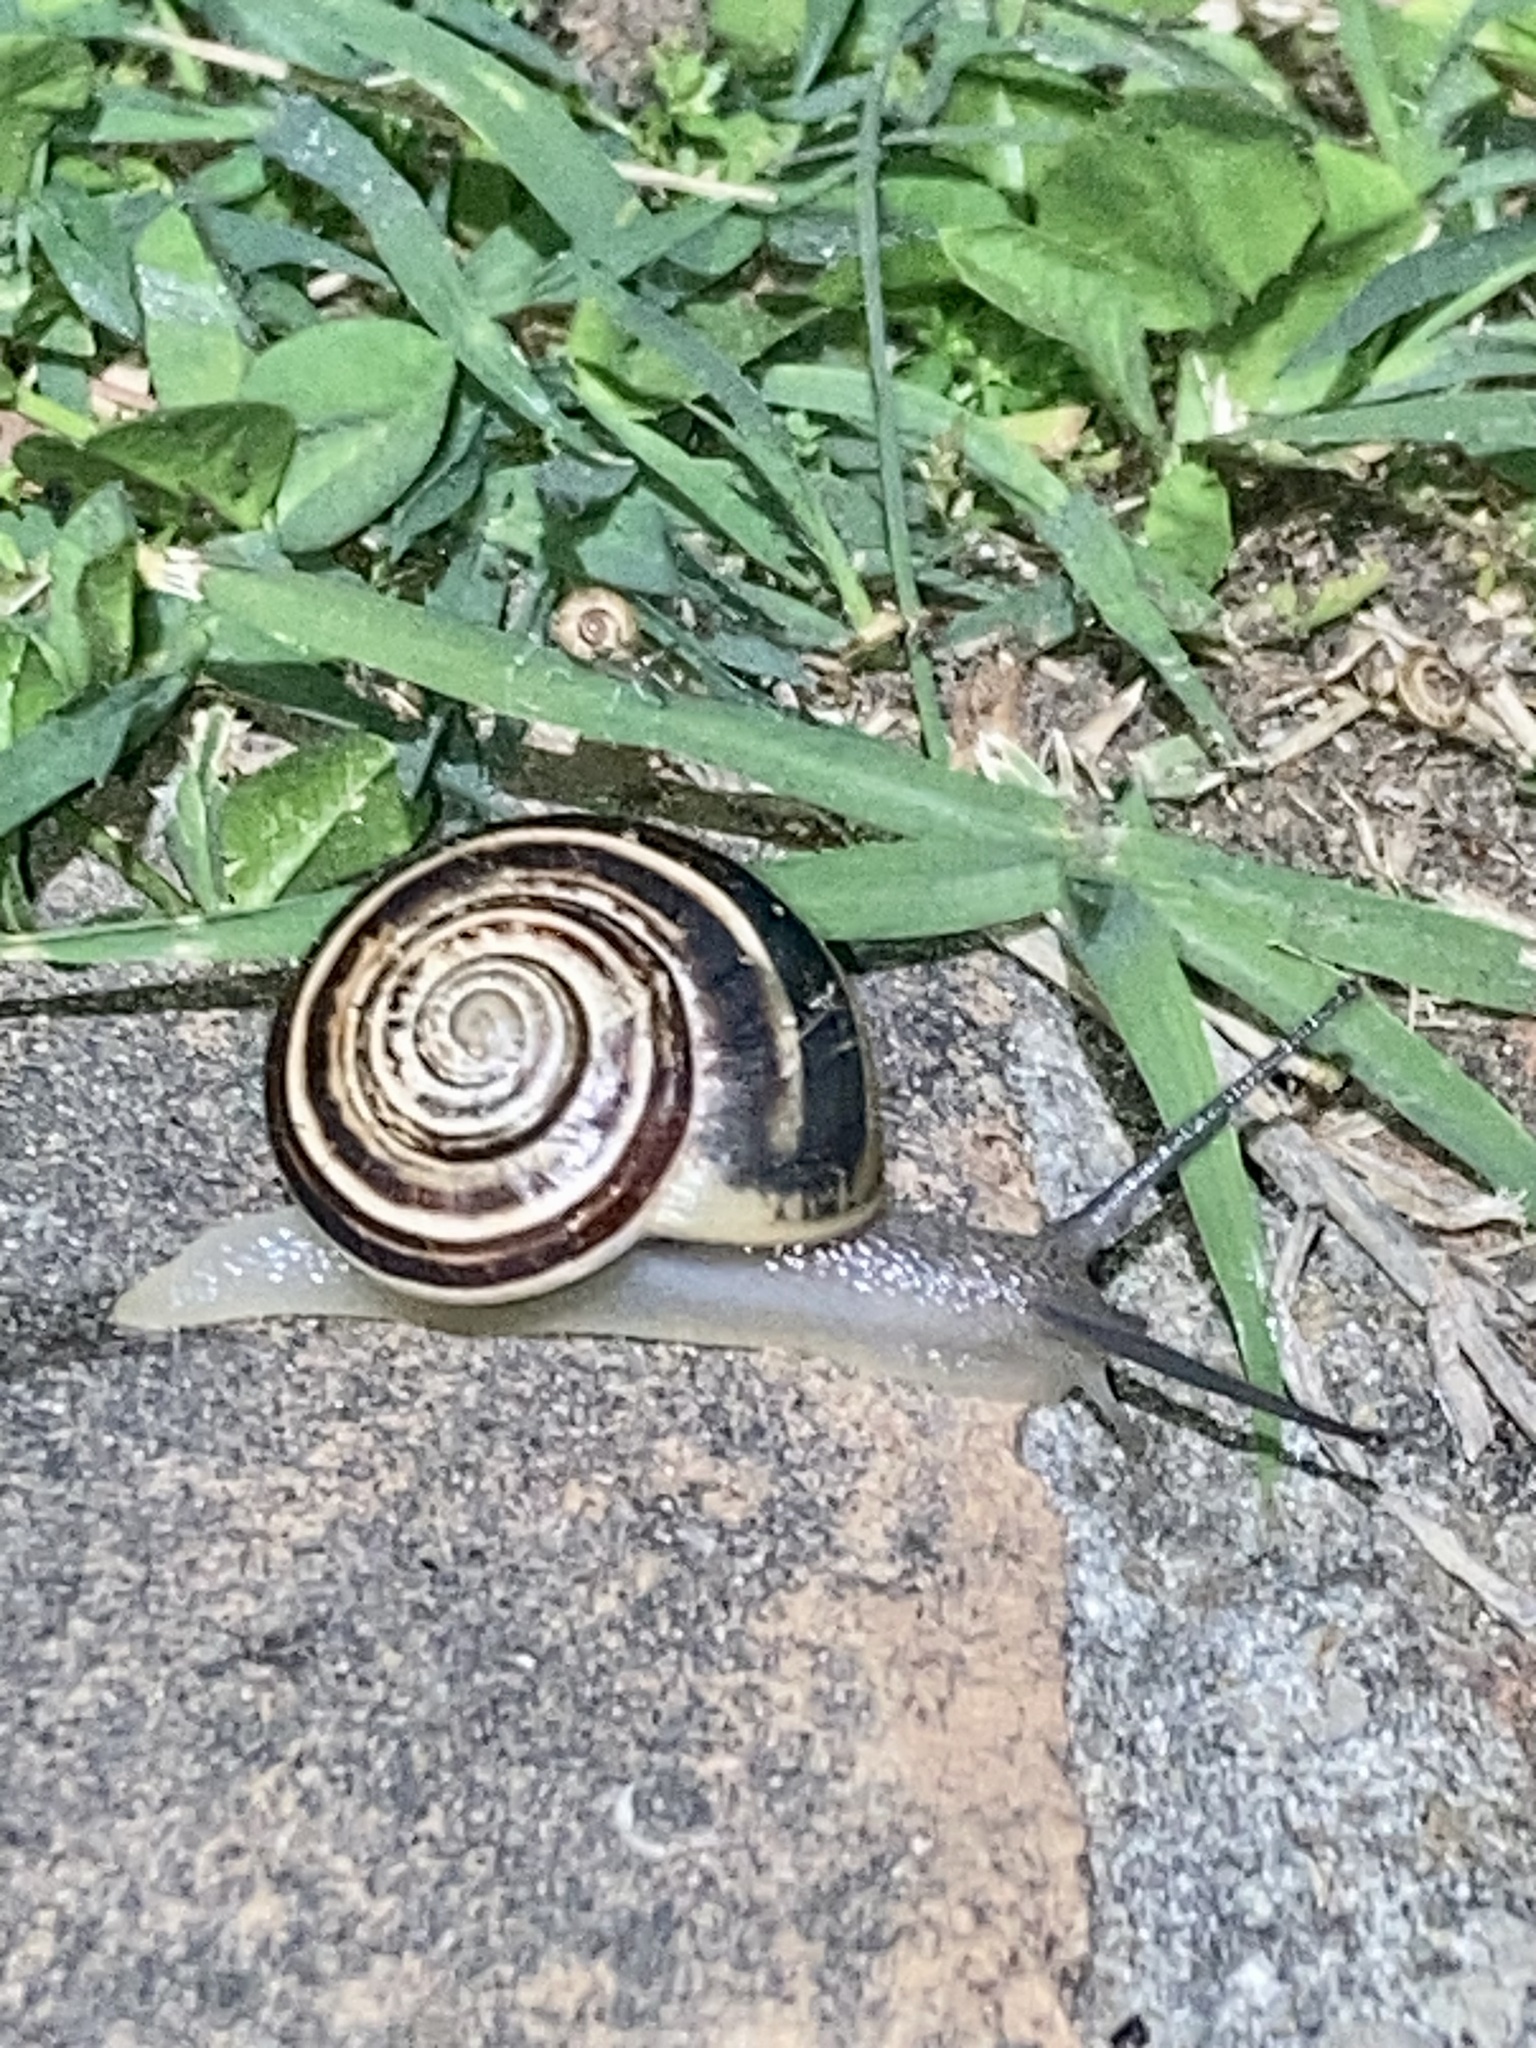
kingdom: Animalia
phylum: Mollusca
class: Gastropoda
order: Stylommatophora
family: Helicidae
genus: Eobania
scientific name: Eobania vermiculata
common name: Chocolateband snail
